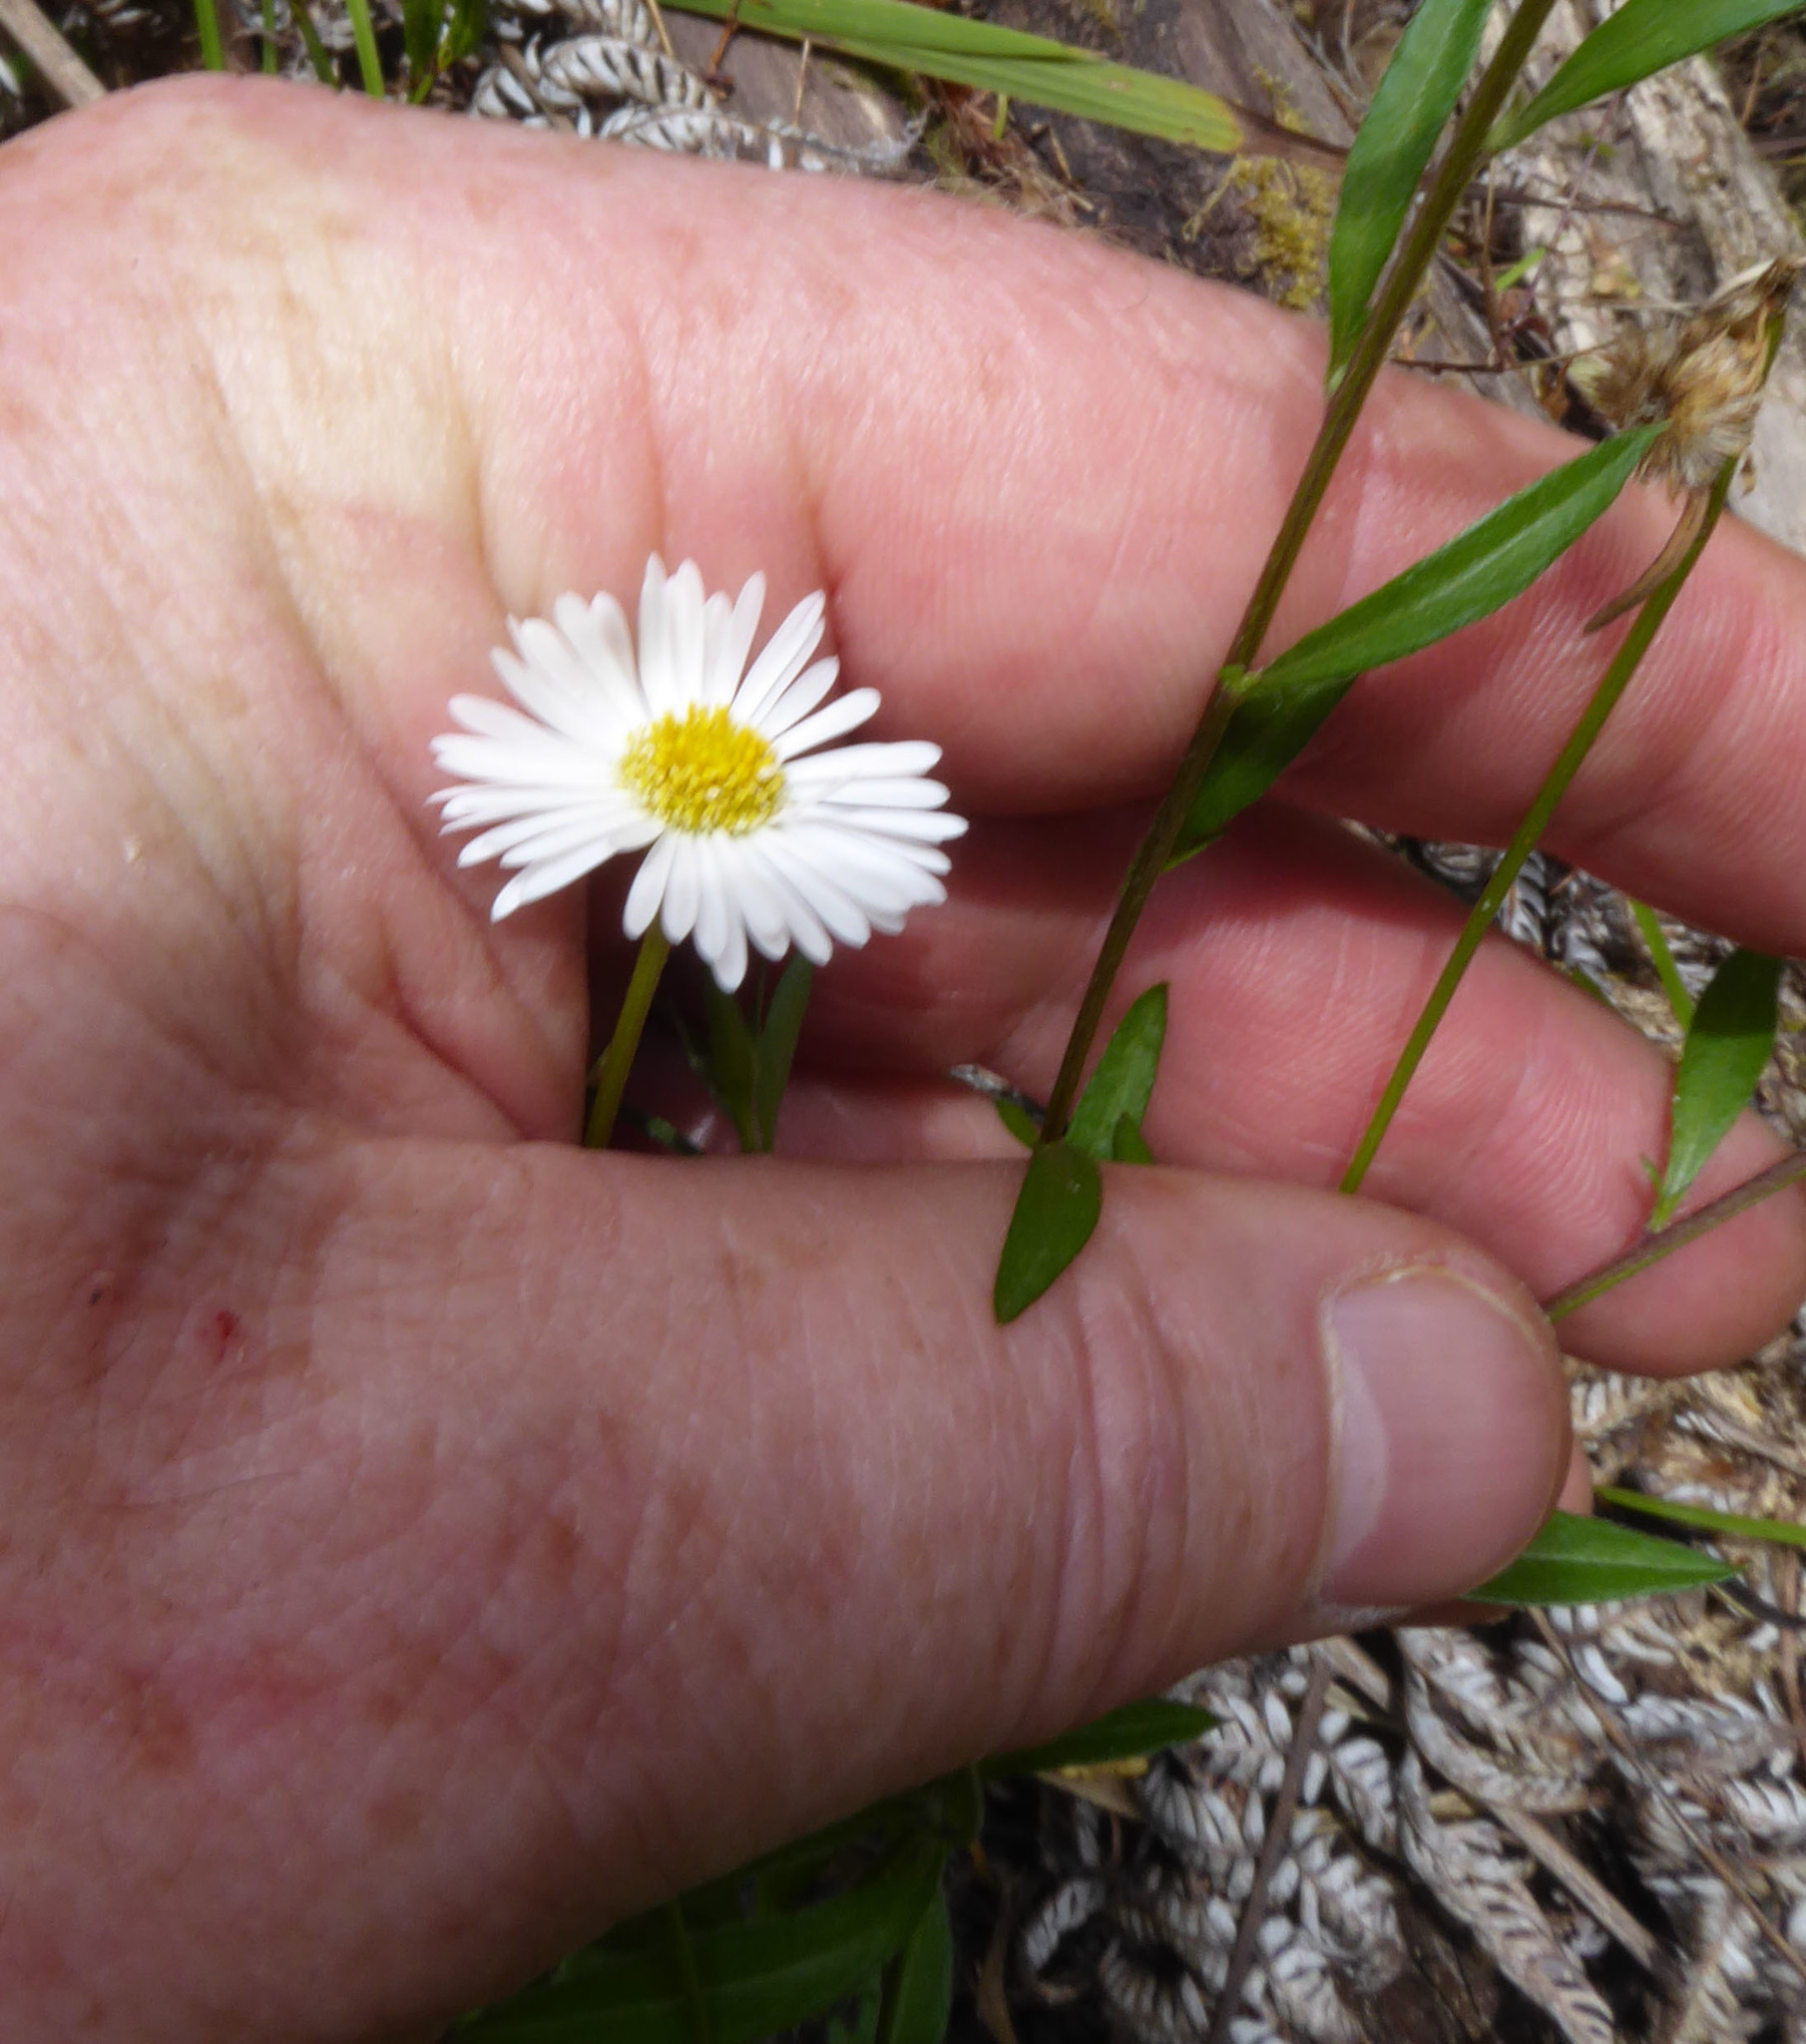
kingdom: Plantae
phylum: Tracheophyta
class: Magnoliopsida
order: Asterales
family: Asteraceae
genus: Erigeron
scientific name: Erigeron karvinskianus
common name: Mexican fleabane
